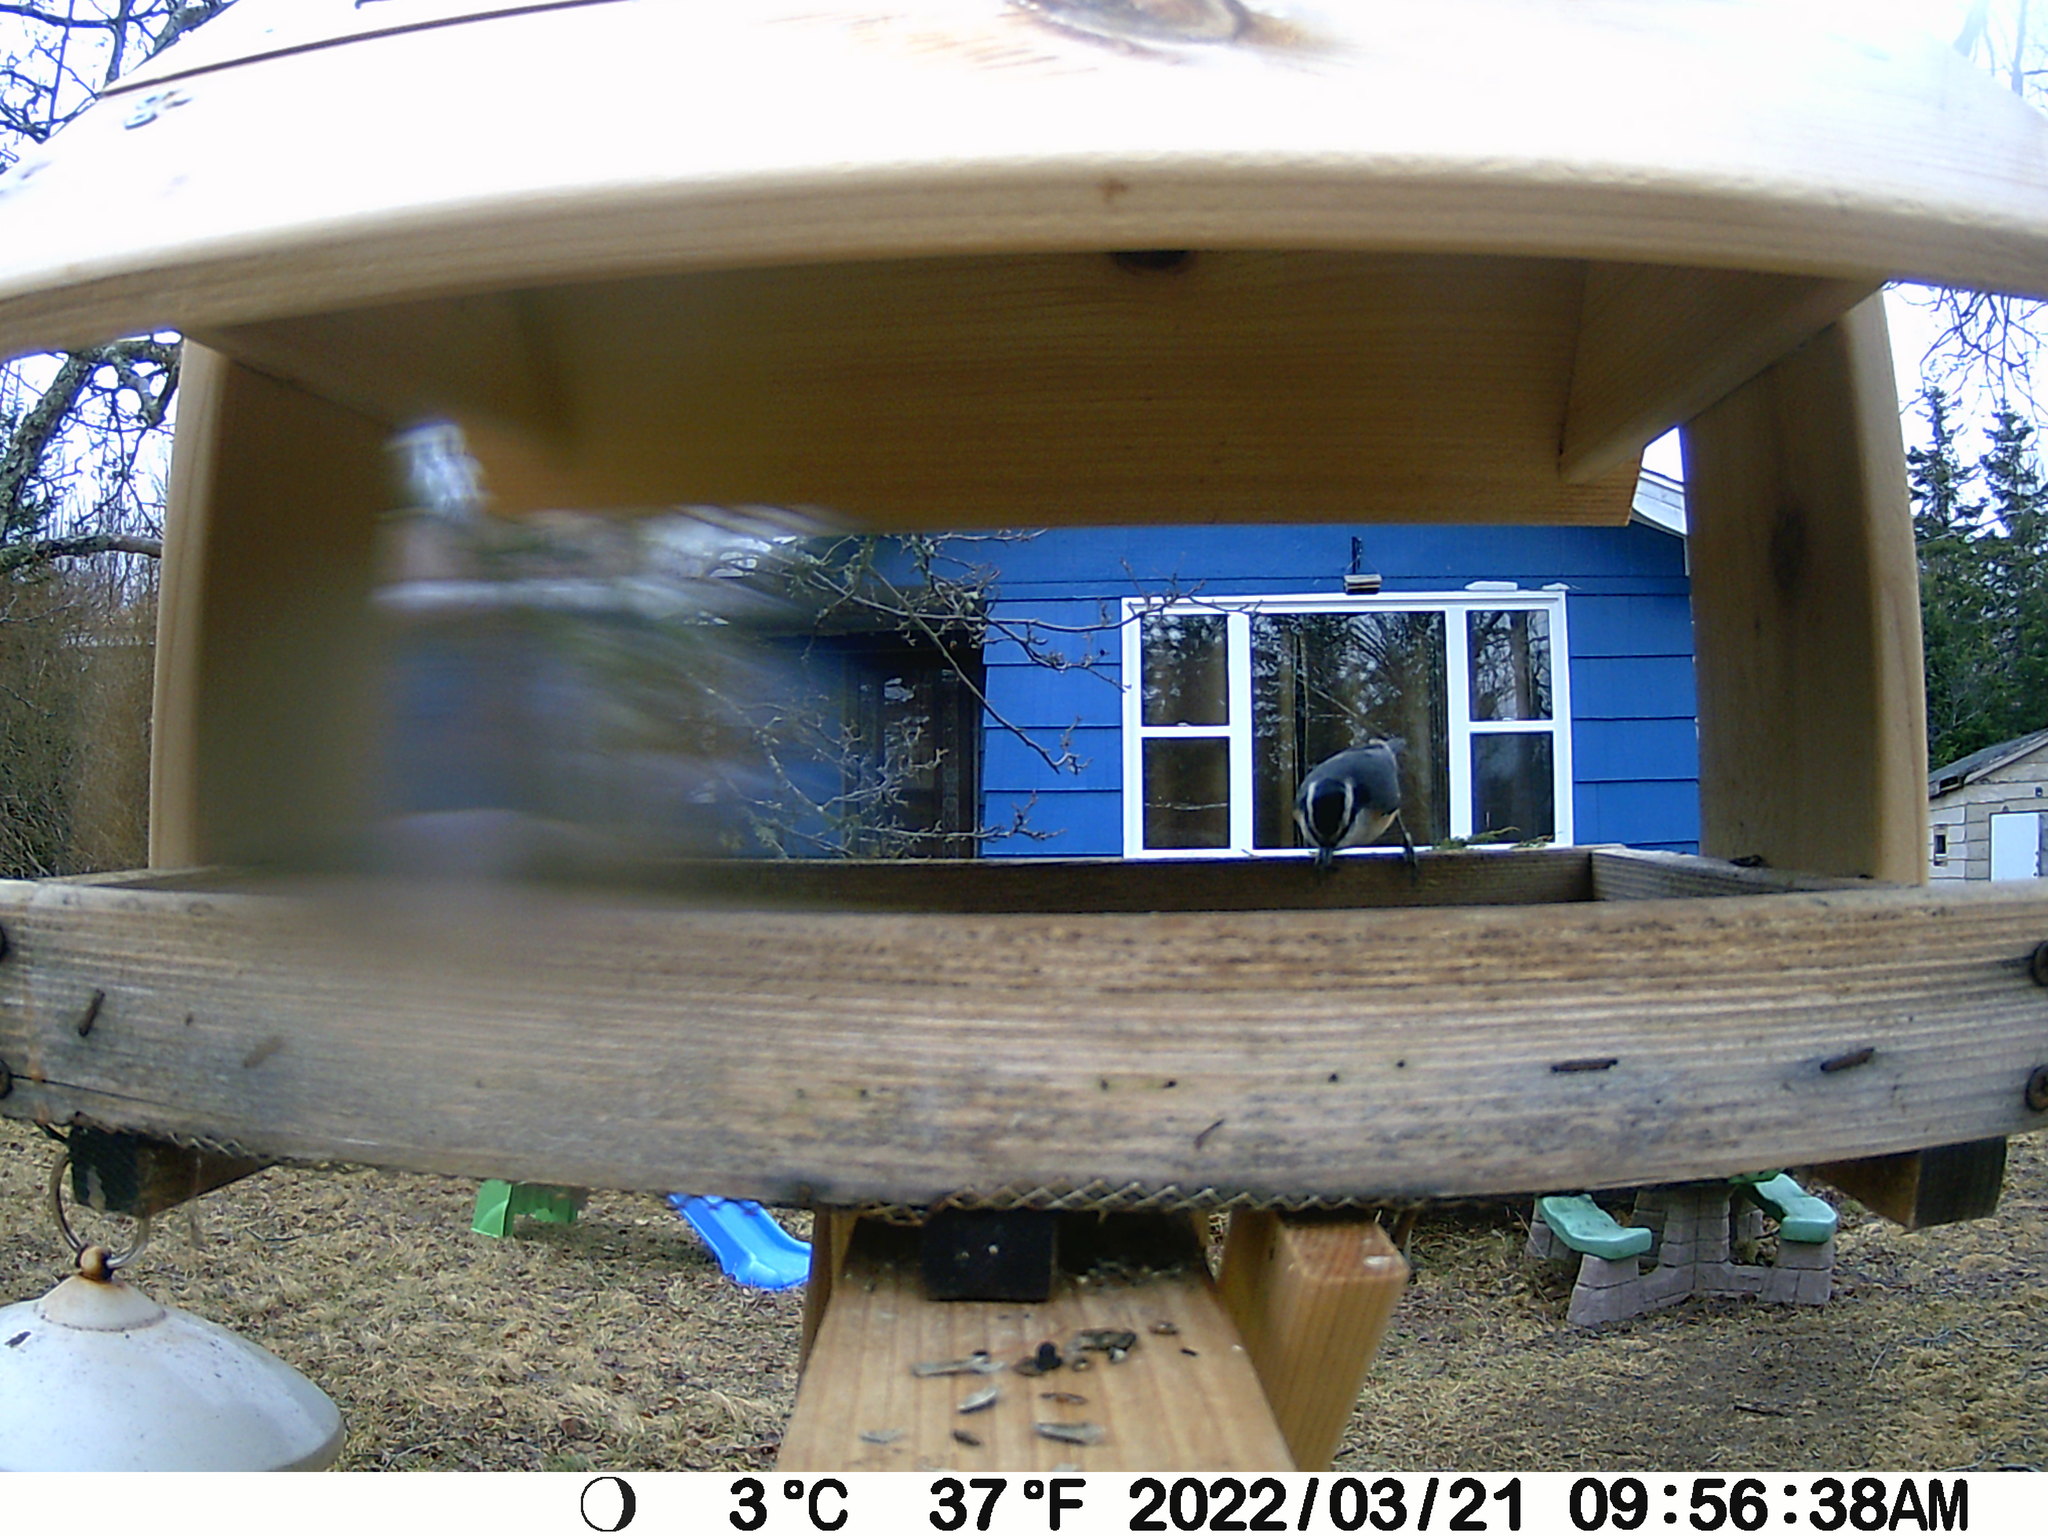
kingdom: Animalia
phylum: Chordata
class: Aves
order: Passeriformes
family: Sittidae
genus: Sitta
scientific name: Sitta canadensis
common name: Red-breasted nuthatch
